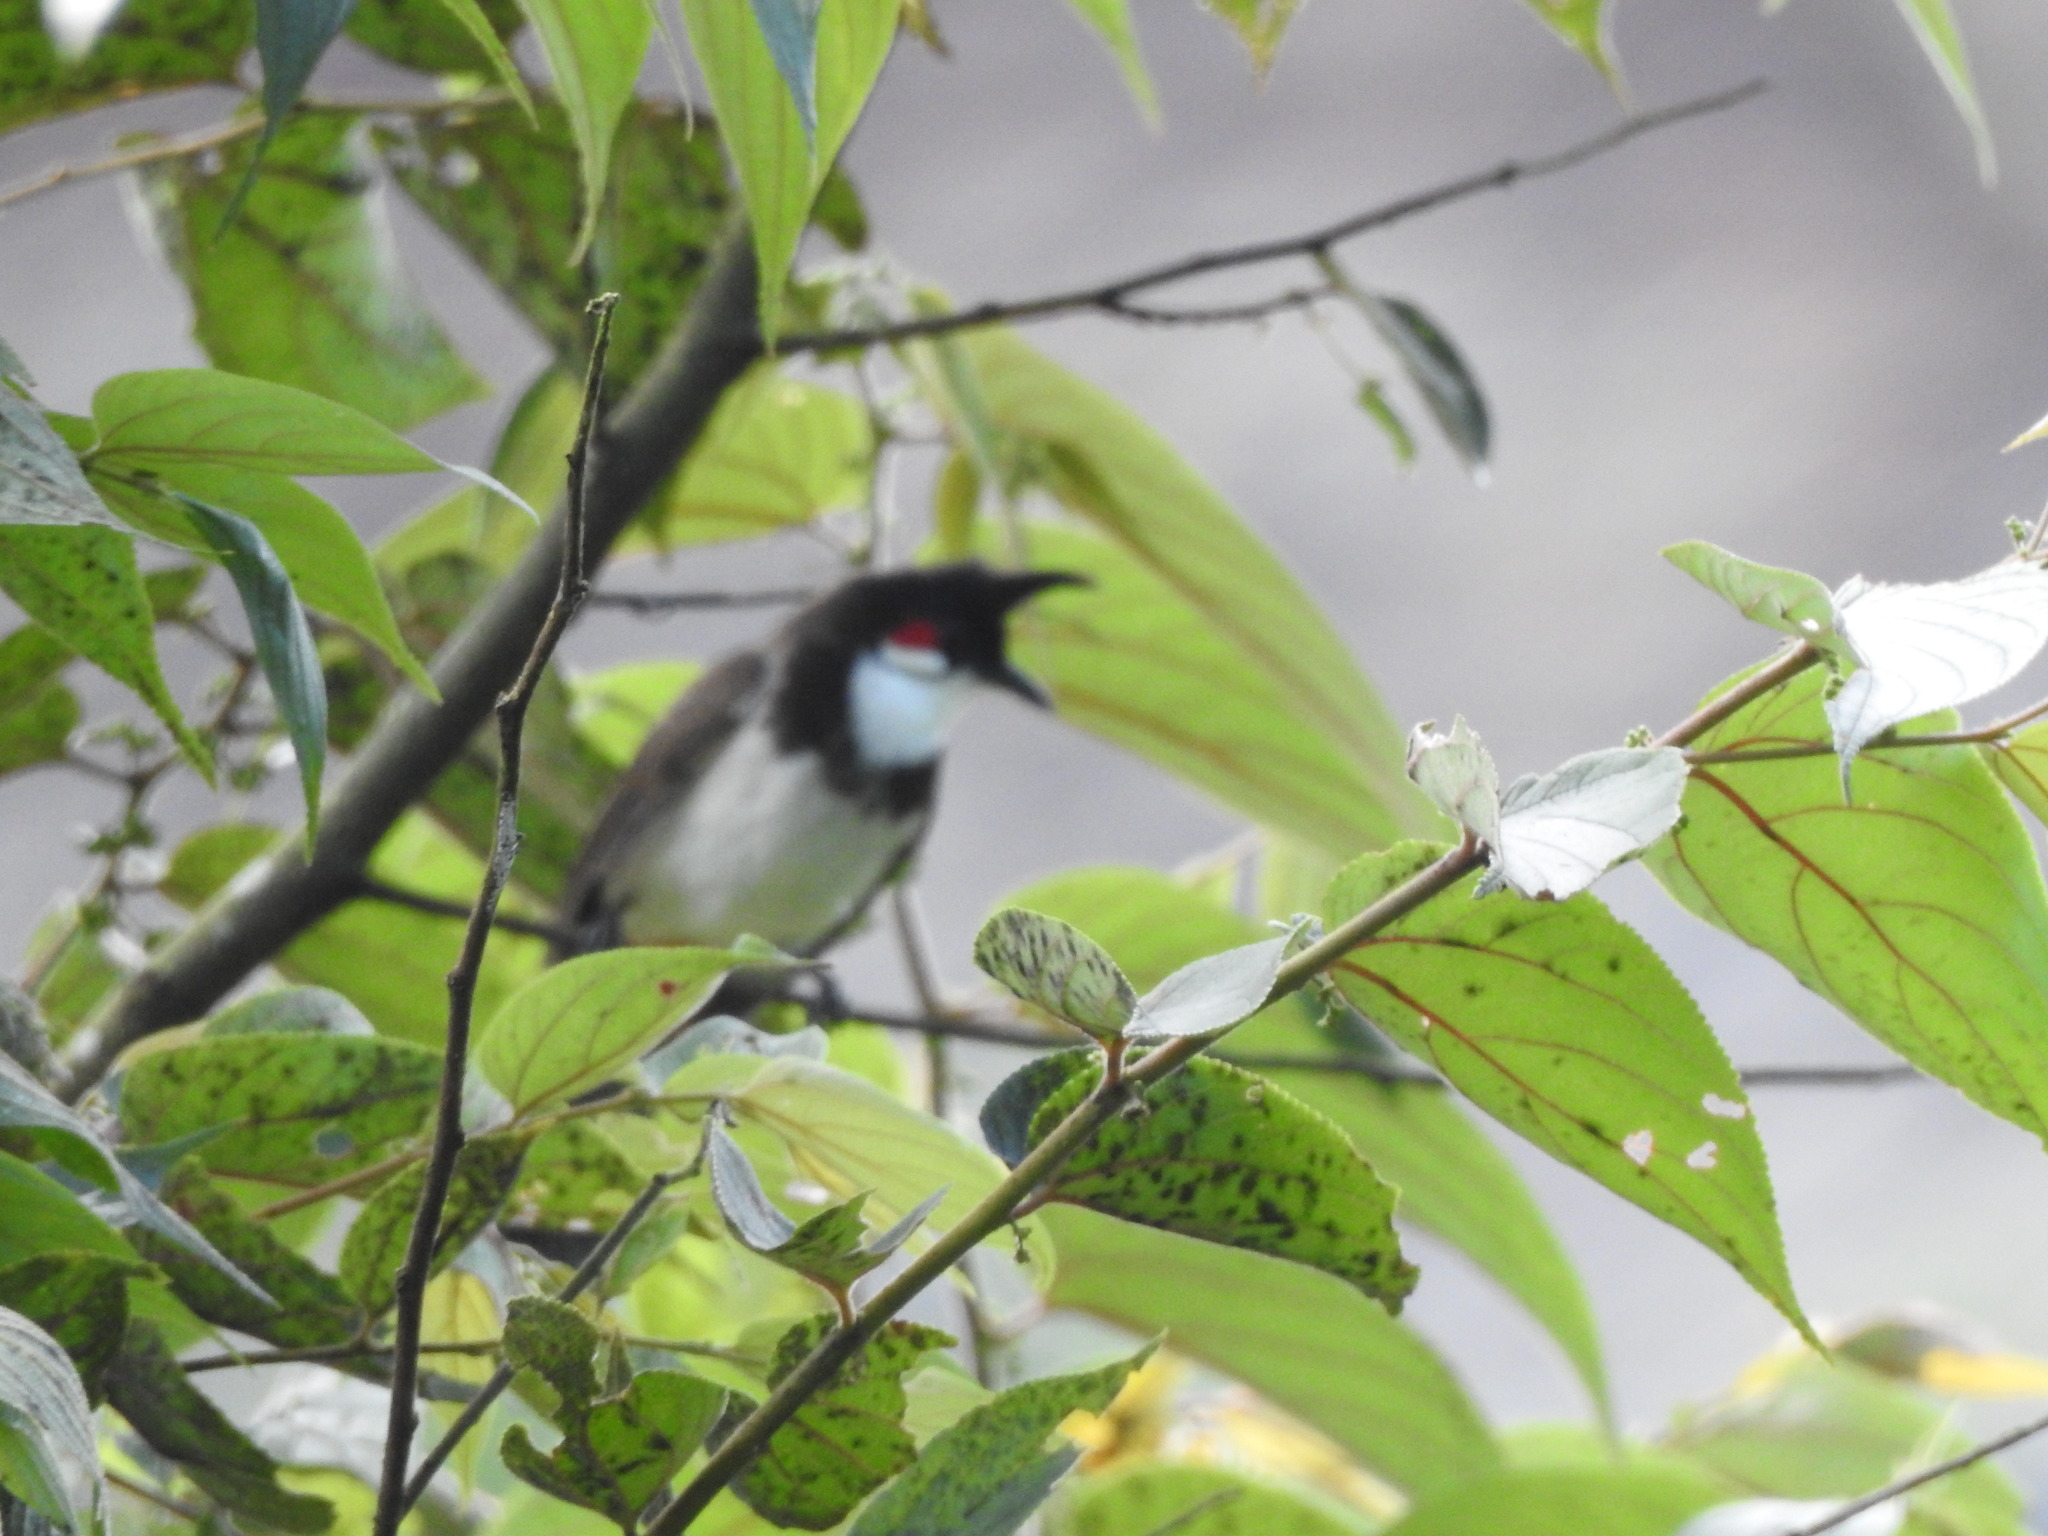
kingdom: Animalia
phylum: Chordata
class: Aves
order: Passeriformes
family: Pycnonotidae
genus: Pycnonotus
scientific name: Pycnonotus jocosus
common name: Red-whiskered bulbul
